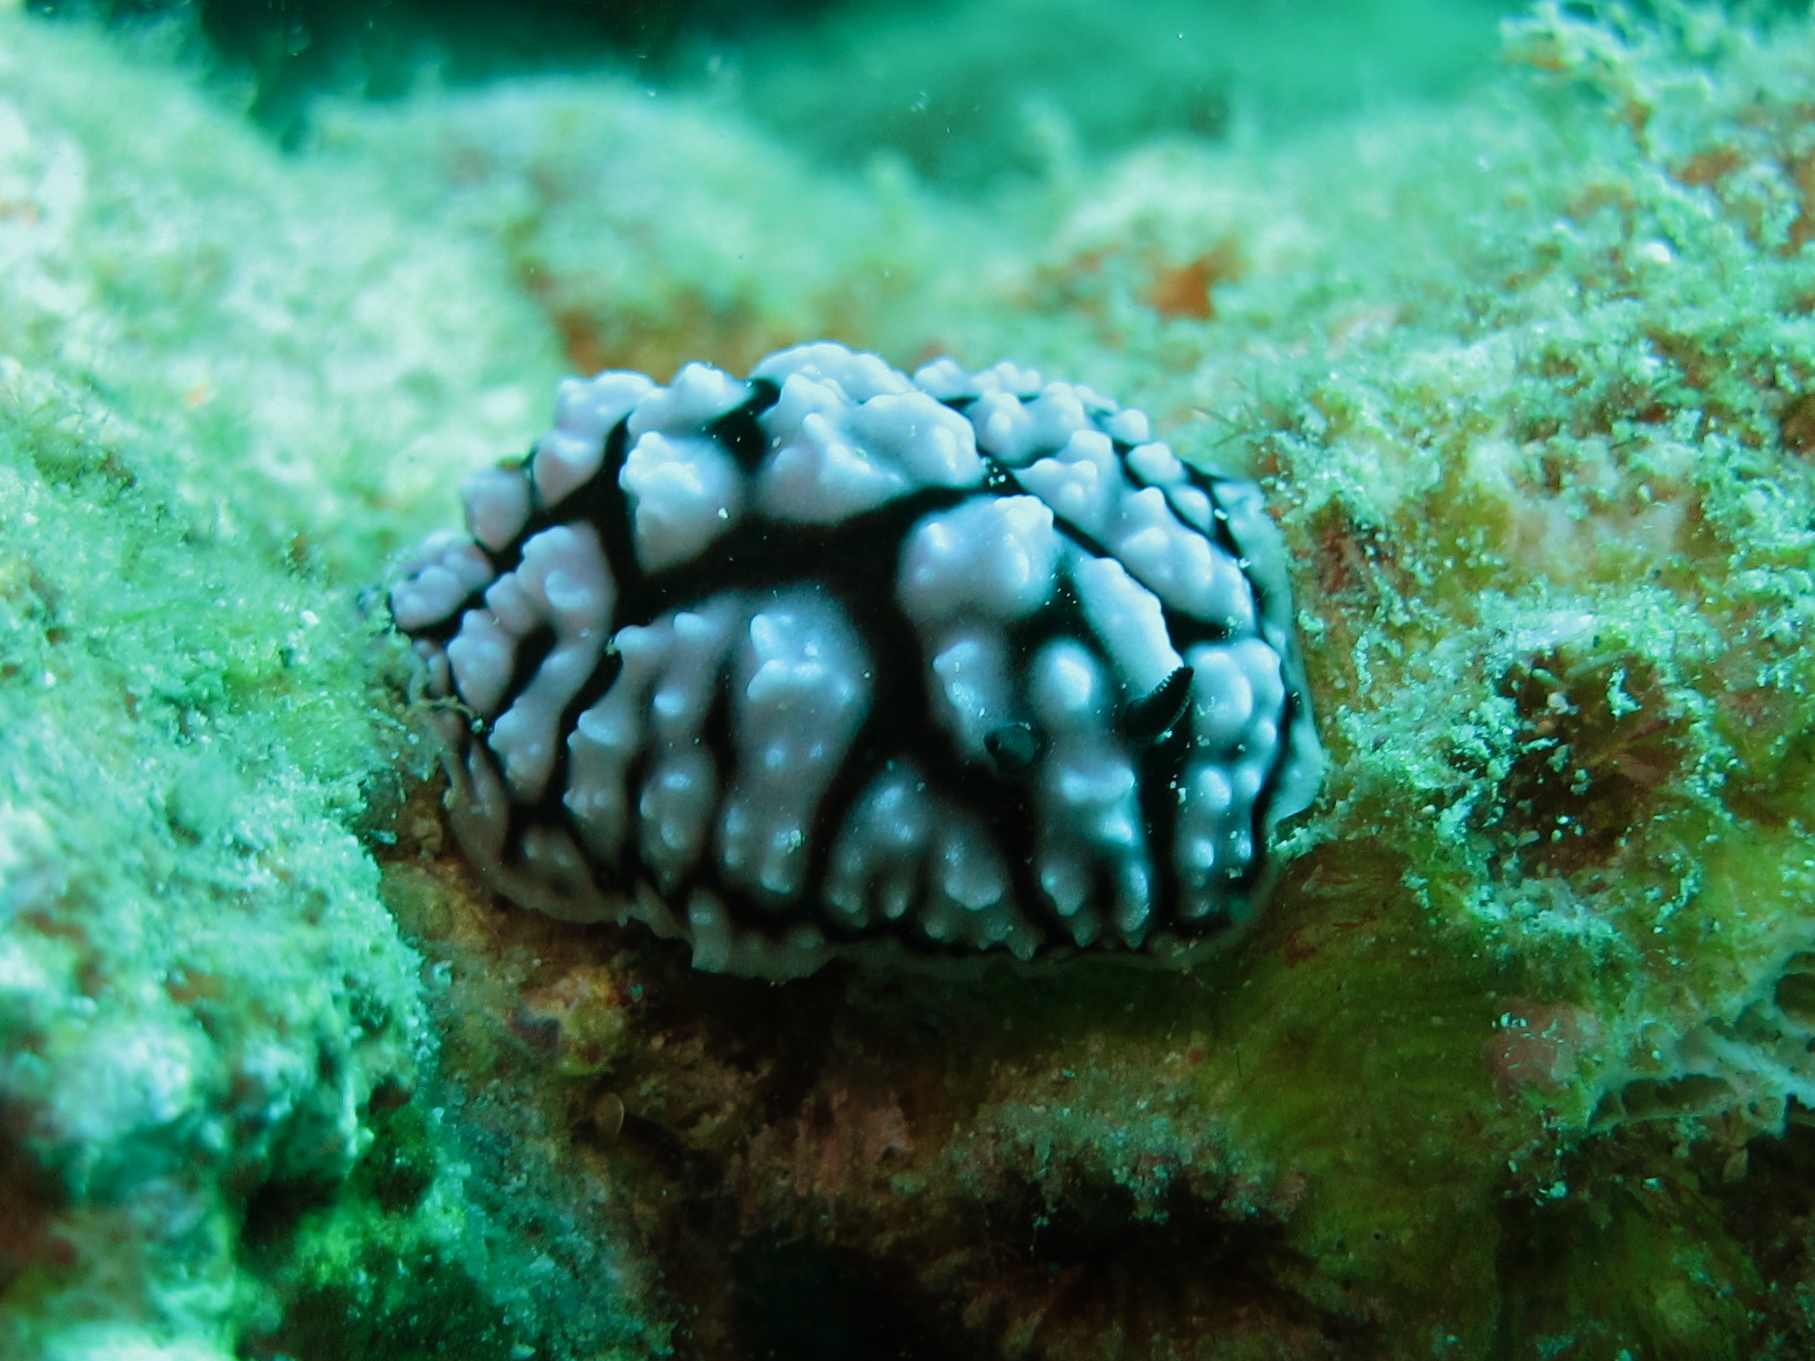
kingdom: Animalia
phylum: Mollusca
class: Gastropoda
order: Nudibranchia
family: Phyllidiidae
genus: Phyllidiella
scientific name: Phyllidiella pustulosa
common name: Pustular phyllidia
